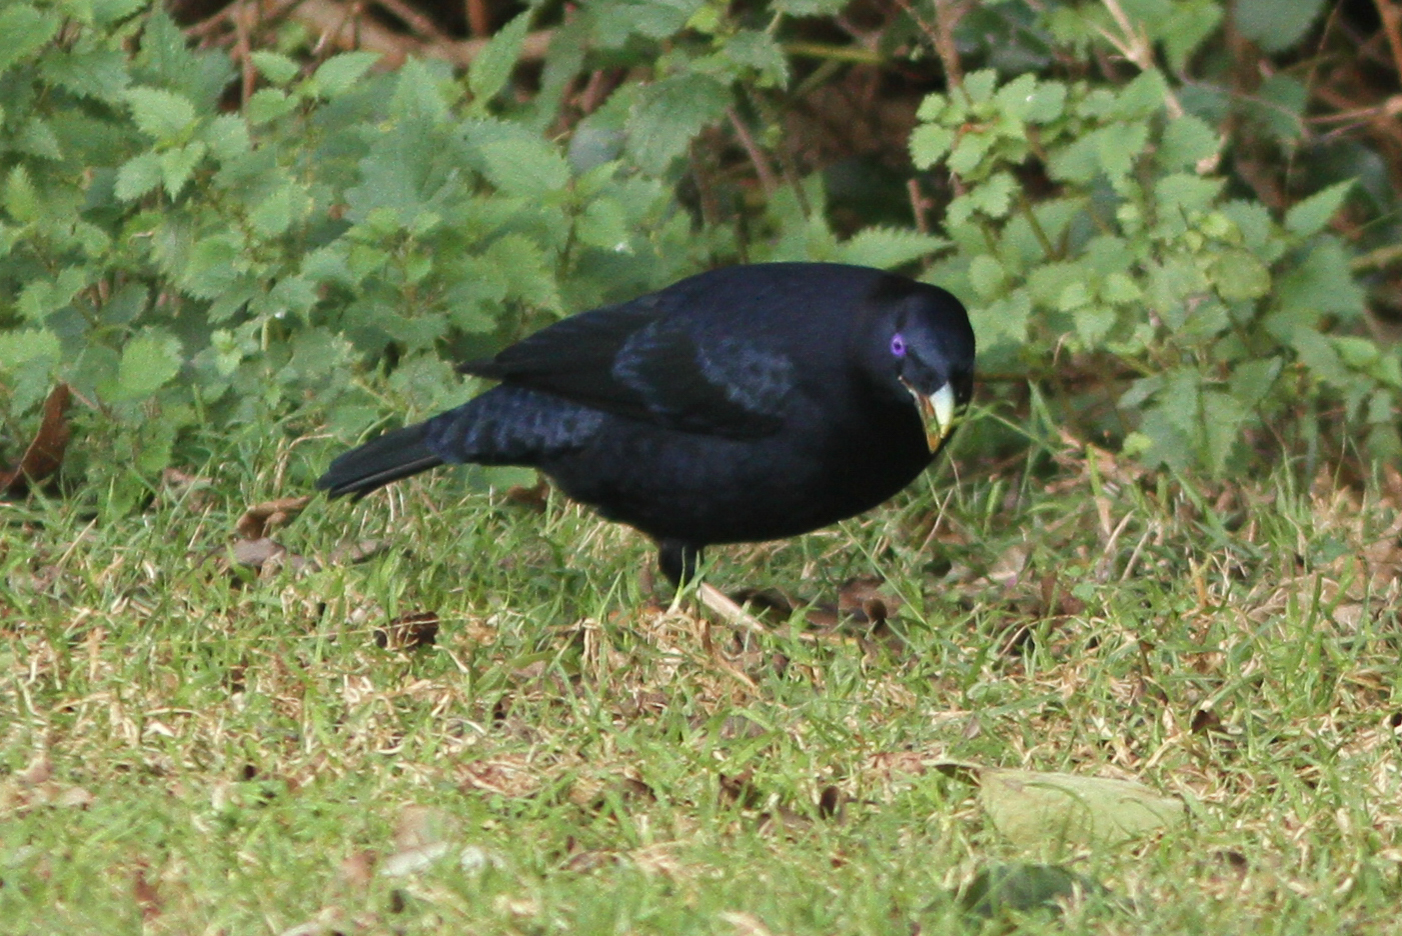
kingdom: Animalia
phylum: Chordata
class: Aves
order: Passeriformes
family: Ptilonorhynchidae
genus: Ptilonorhynchus
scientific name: Ptilonorhynchus violaceus
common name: Satin bowerbird
